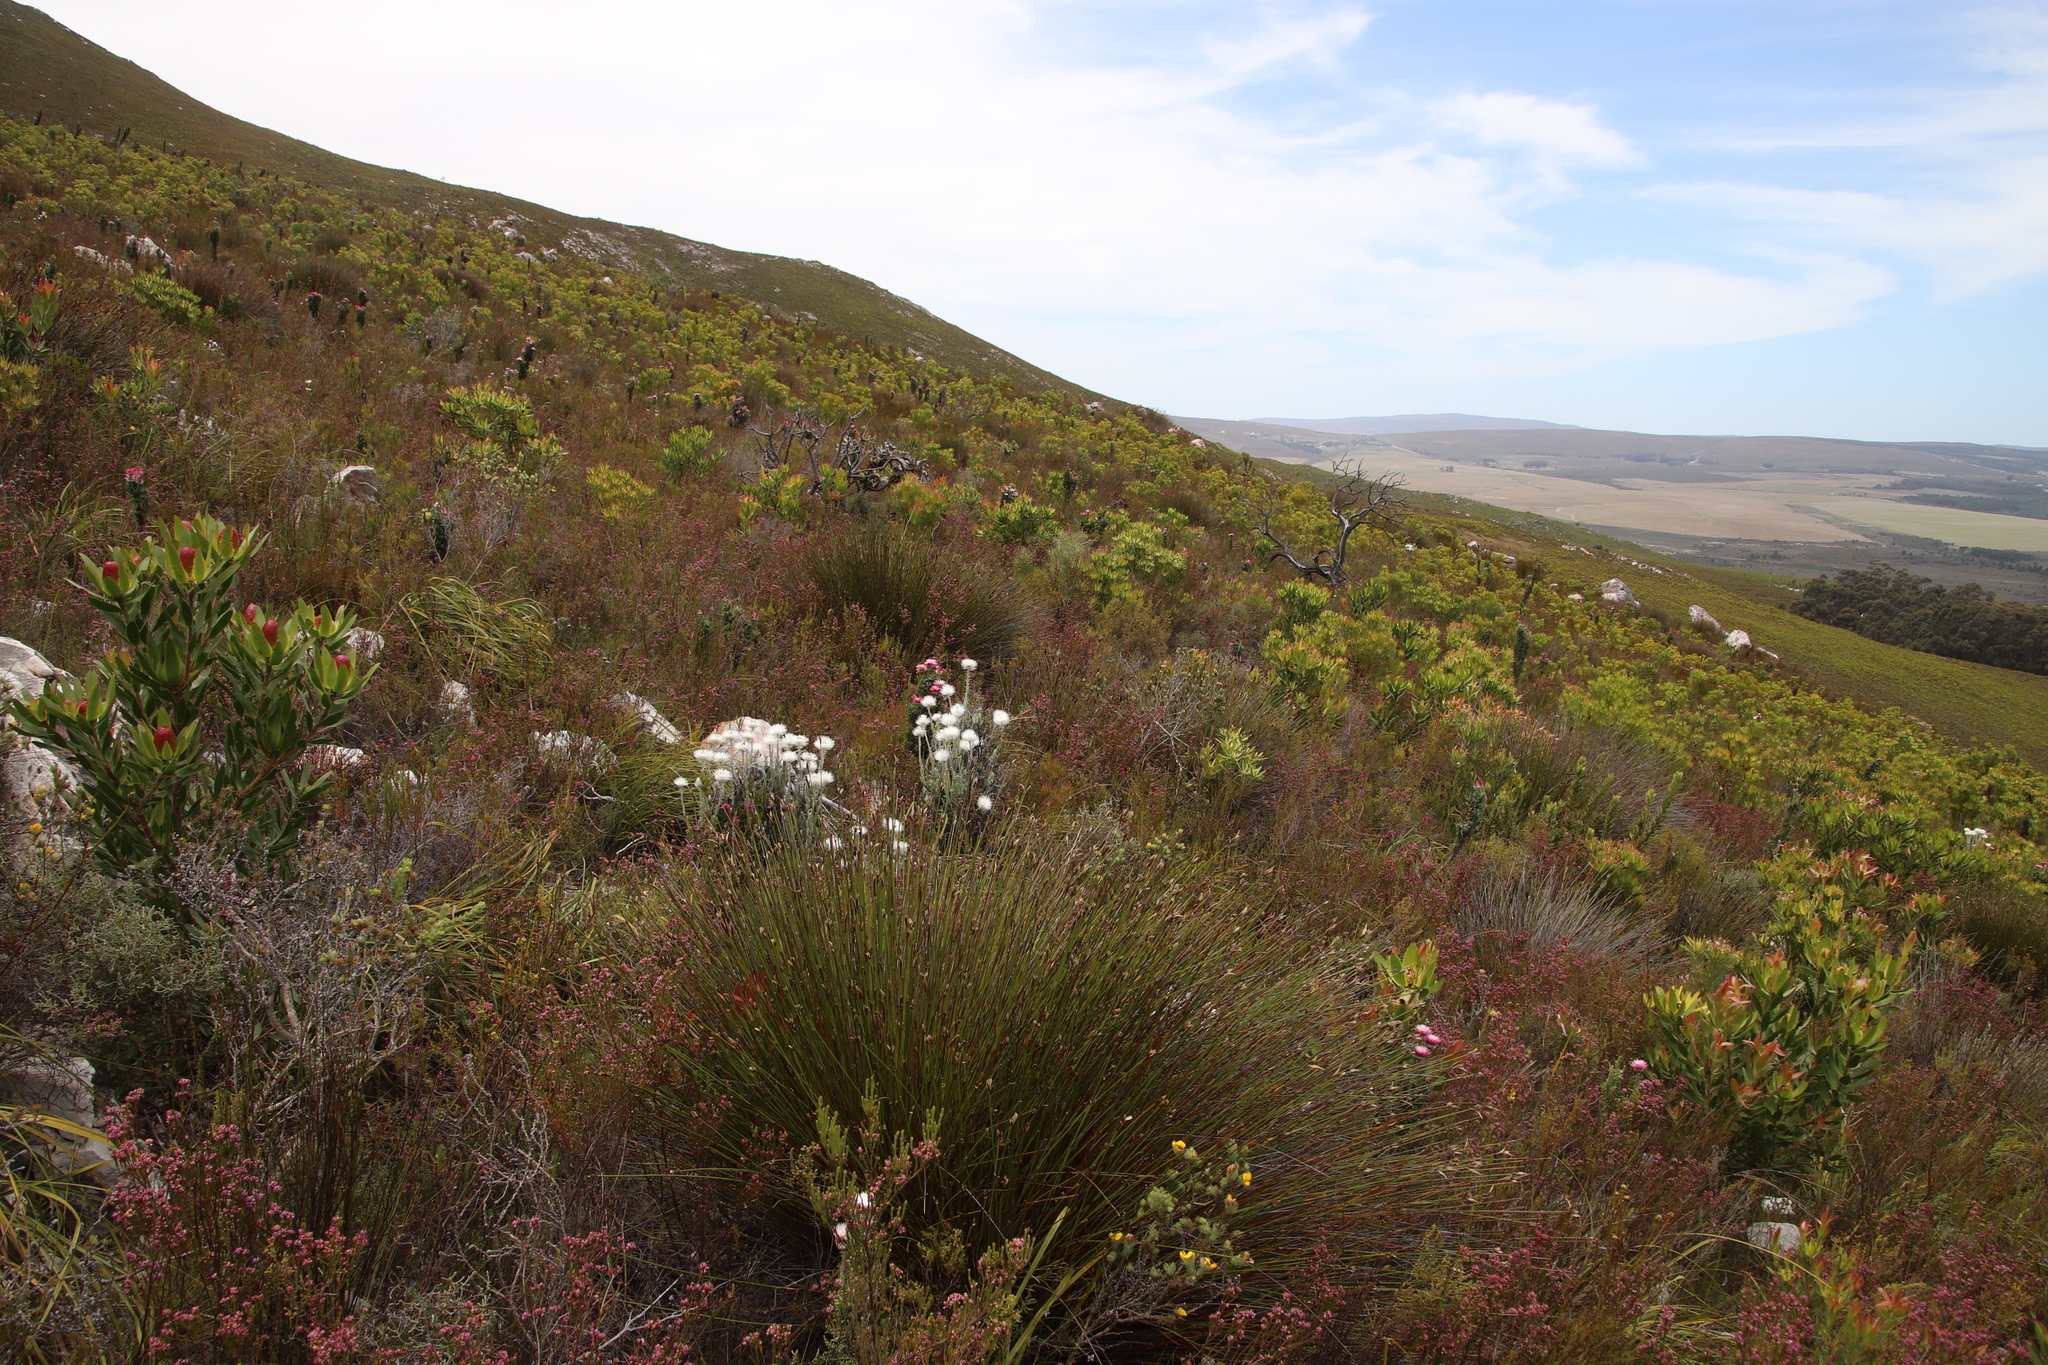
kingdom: Plantae
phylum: Tracheophyta
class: Magnoliopsida
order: Asterales
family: Asteraceae
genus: Syncarpha
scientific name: Syncarpha vestita
